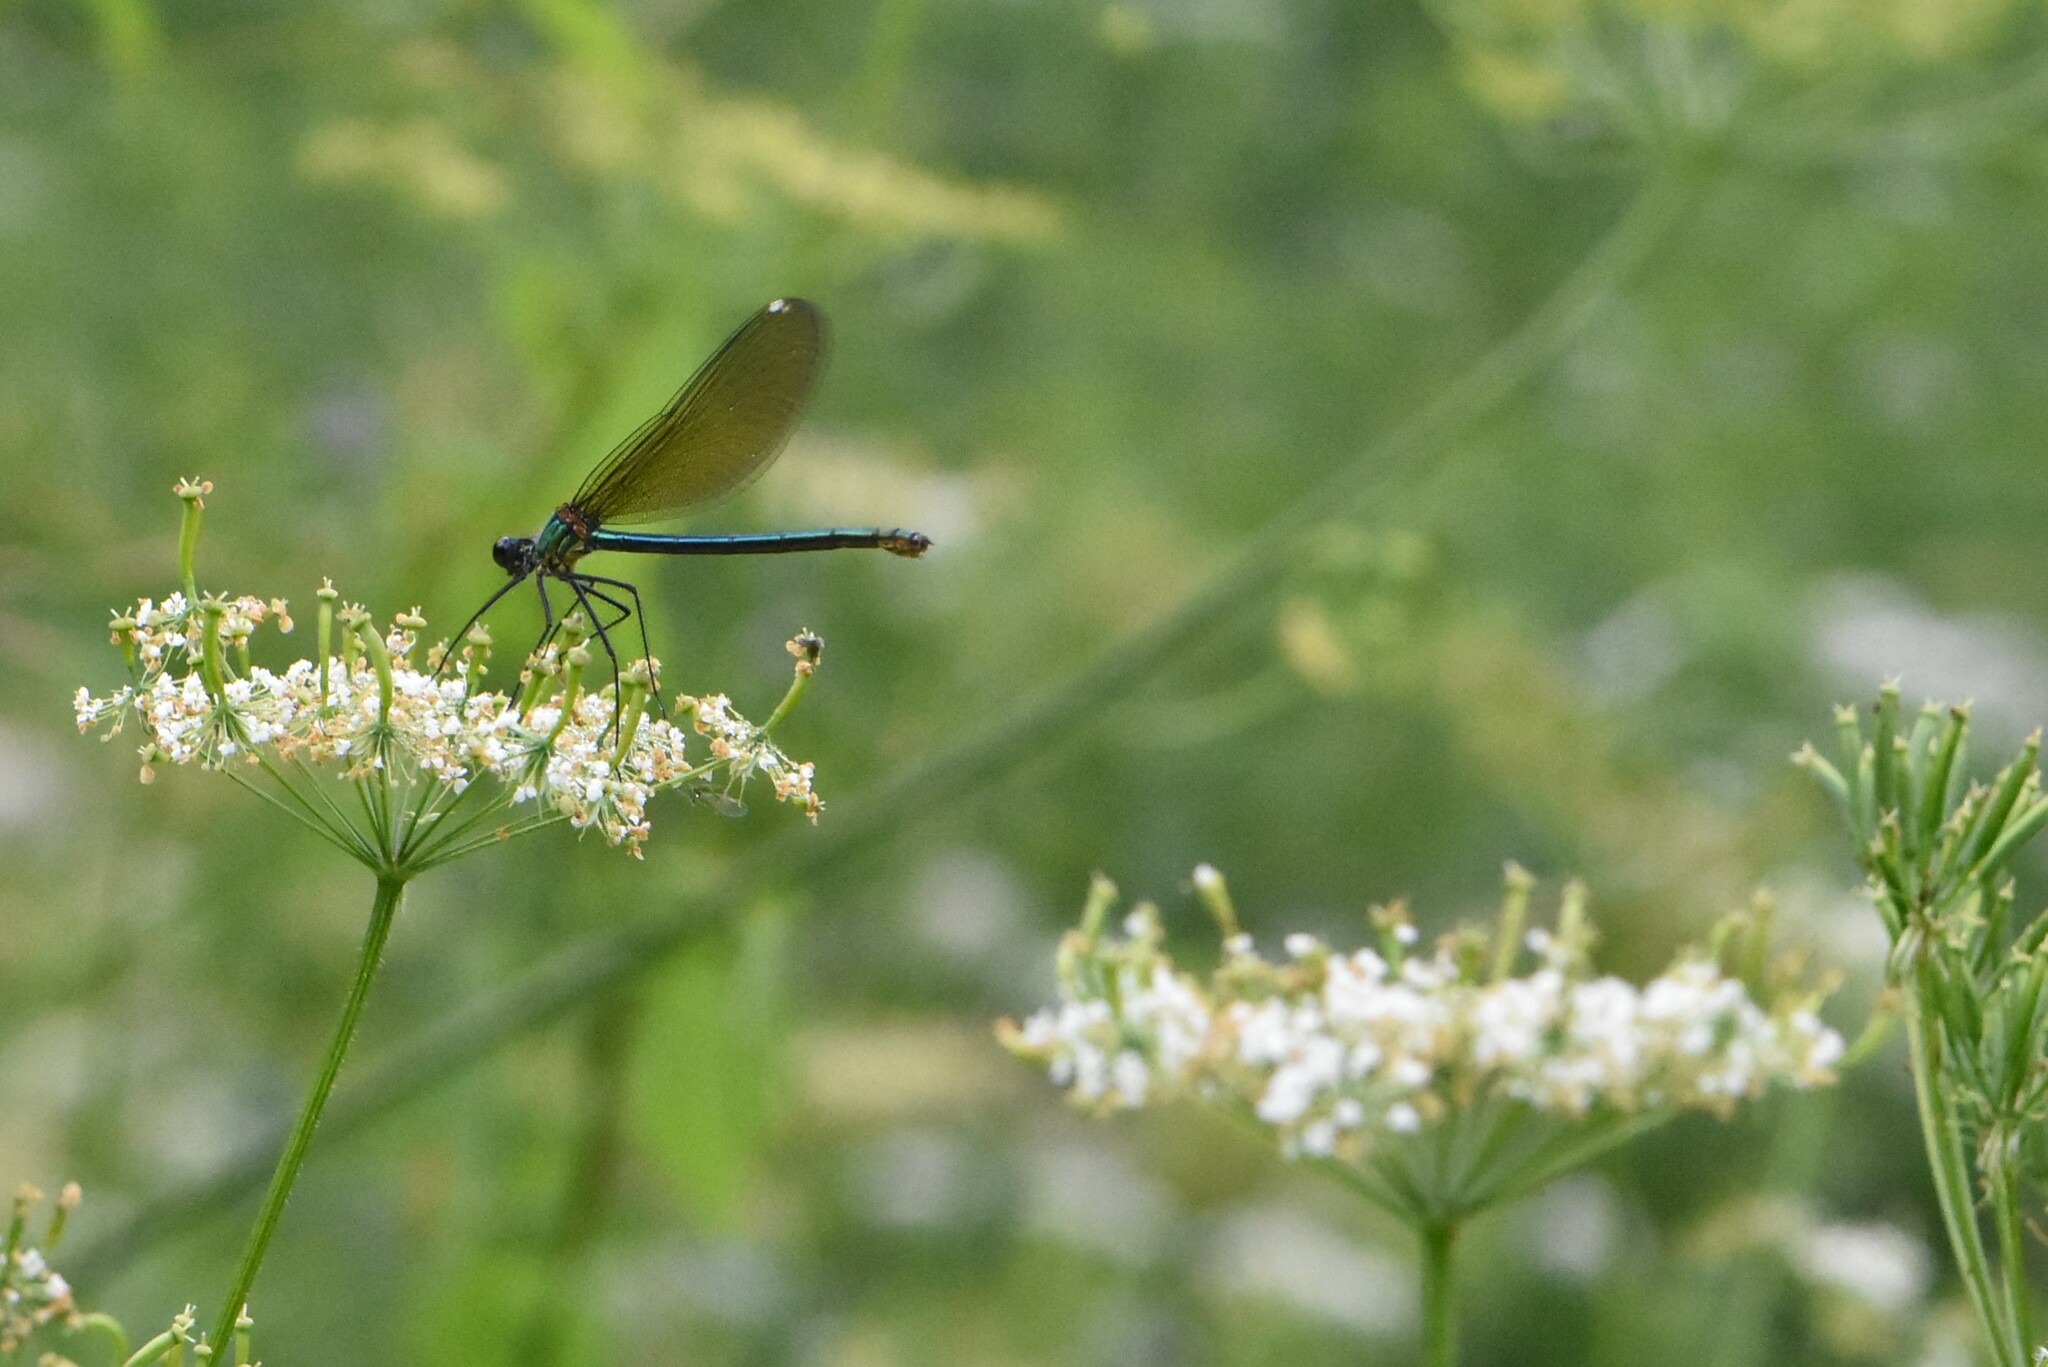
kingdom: Animalia
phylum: Arthropoda
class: Insecta
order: Odonata
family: Calopterygidae
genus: Calopteryx
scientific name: Calopteryx splendens
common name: Banded demoiselle
